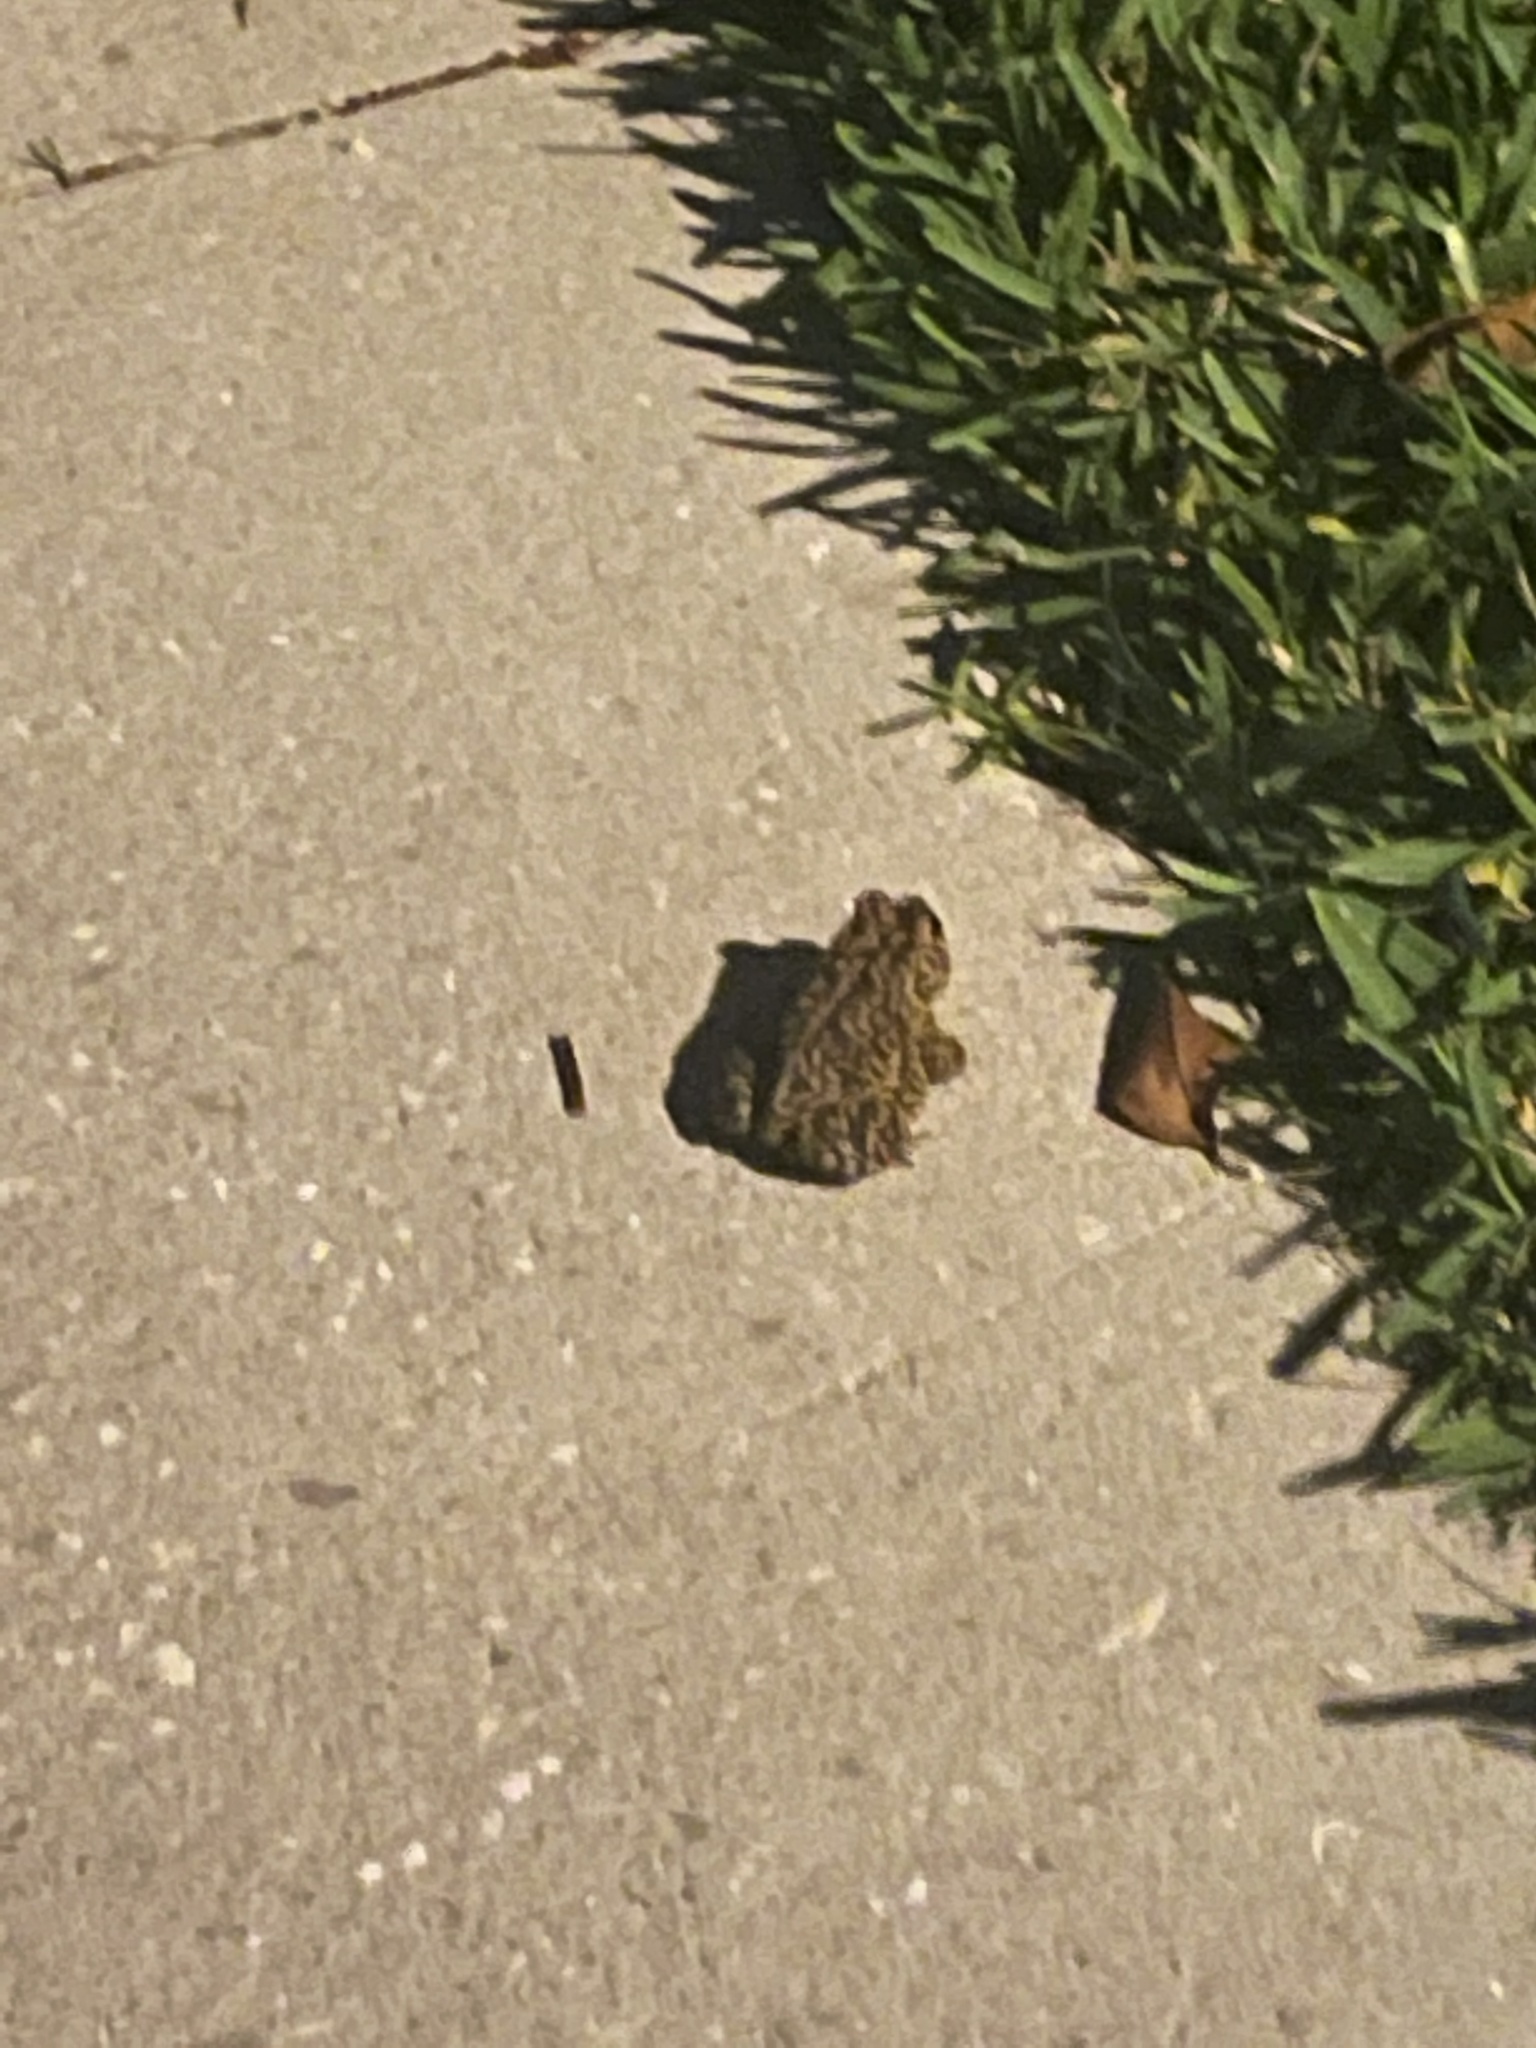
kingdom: Animalia
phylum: Chordata
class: Amphibia
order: Anura
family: Bufonidae
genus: Anaxyrus
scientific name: Anaxyrus terrestris
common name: Southern toad
